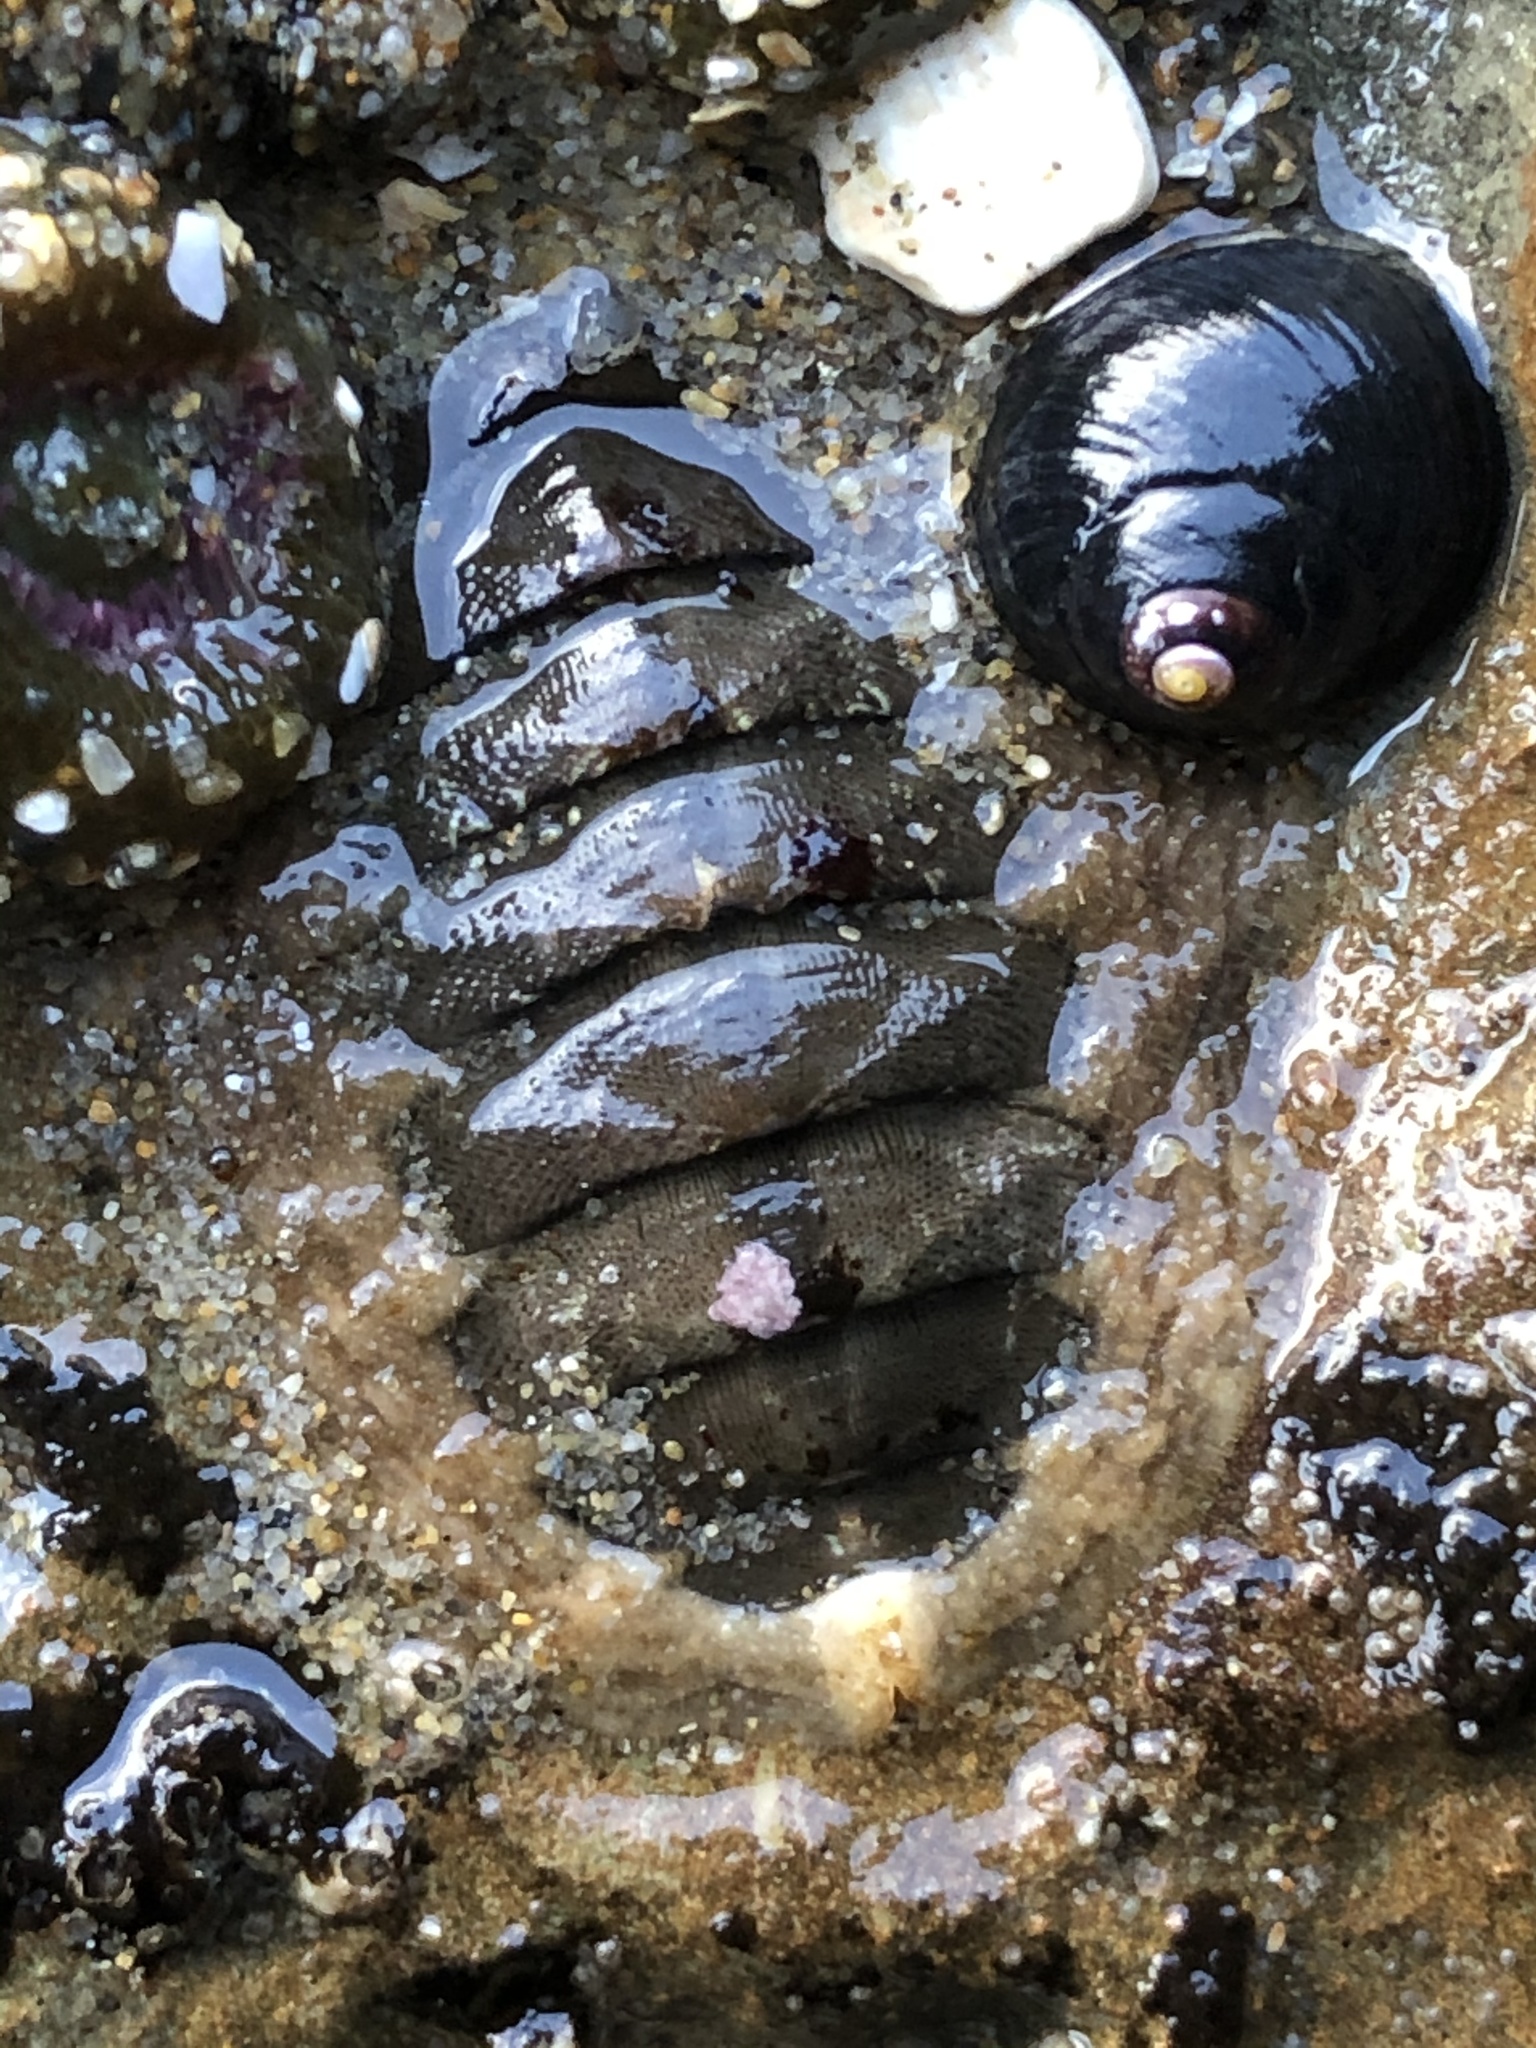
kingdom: Animalia
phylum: Mollusca
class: Polyplacophora
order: Chitonida
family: Mopaliidae
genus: Mopalia
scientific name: Mopalia hindsii
